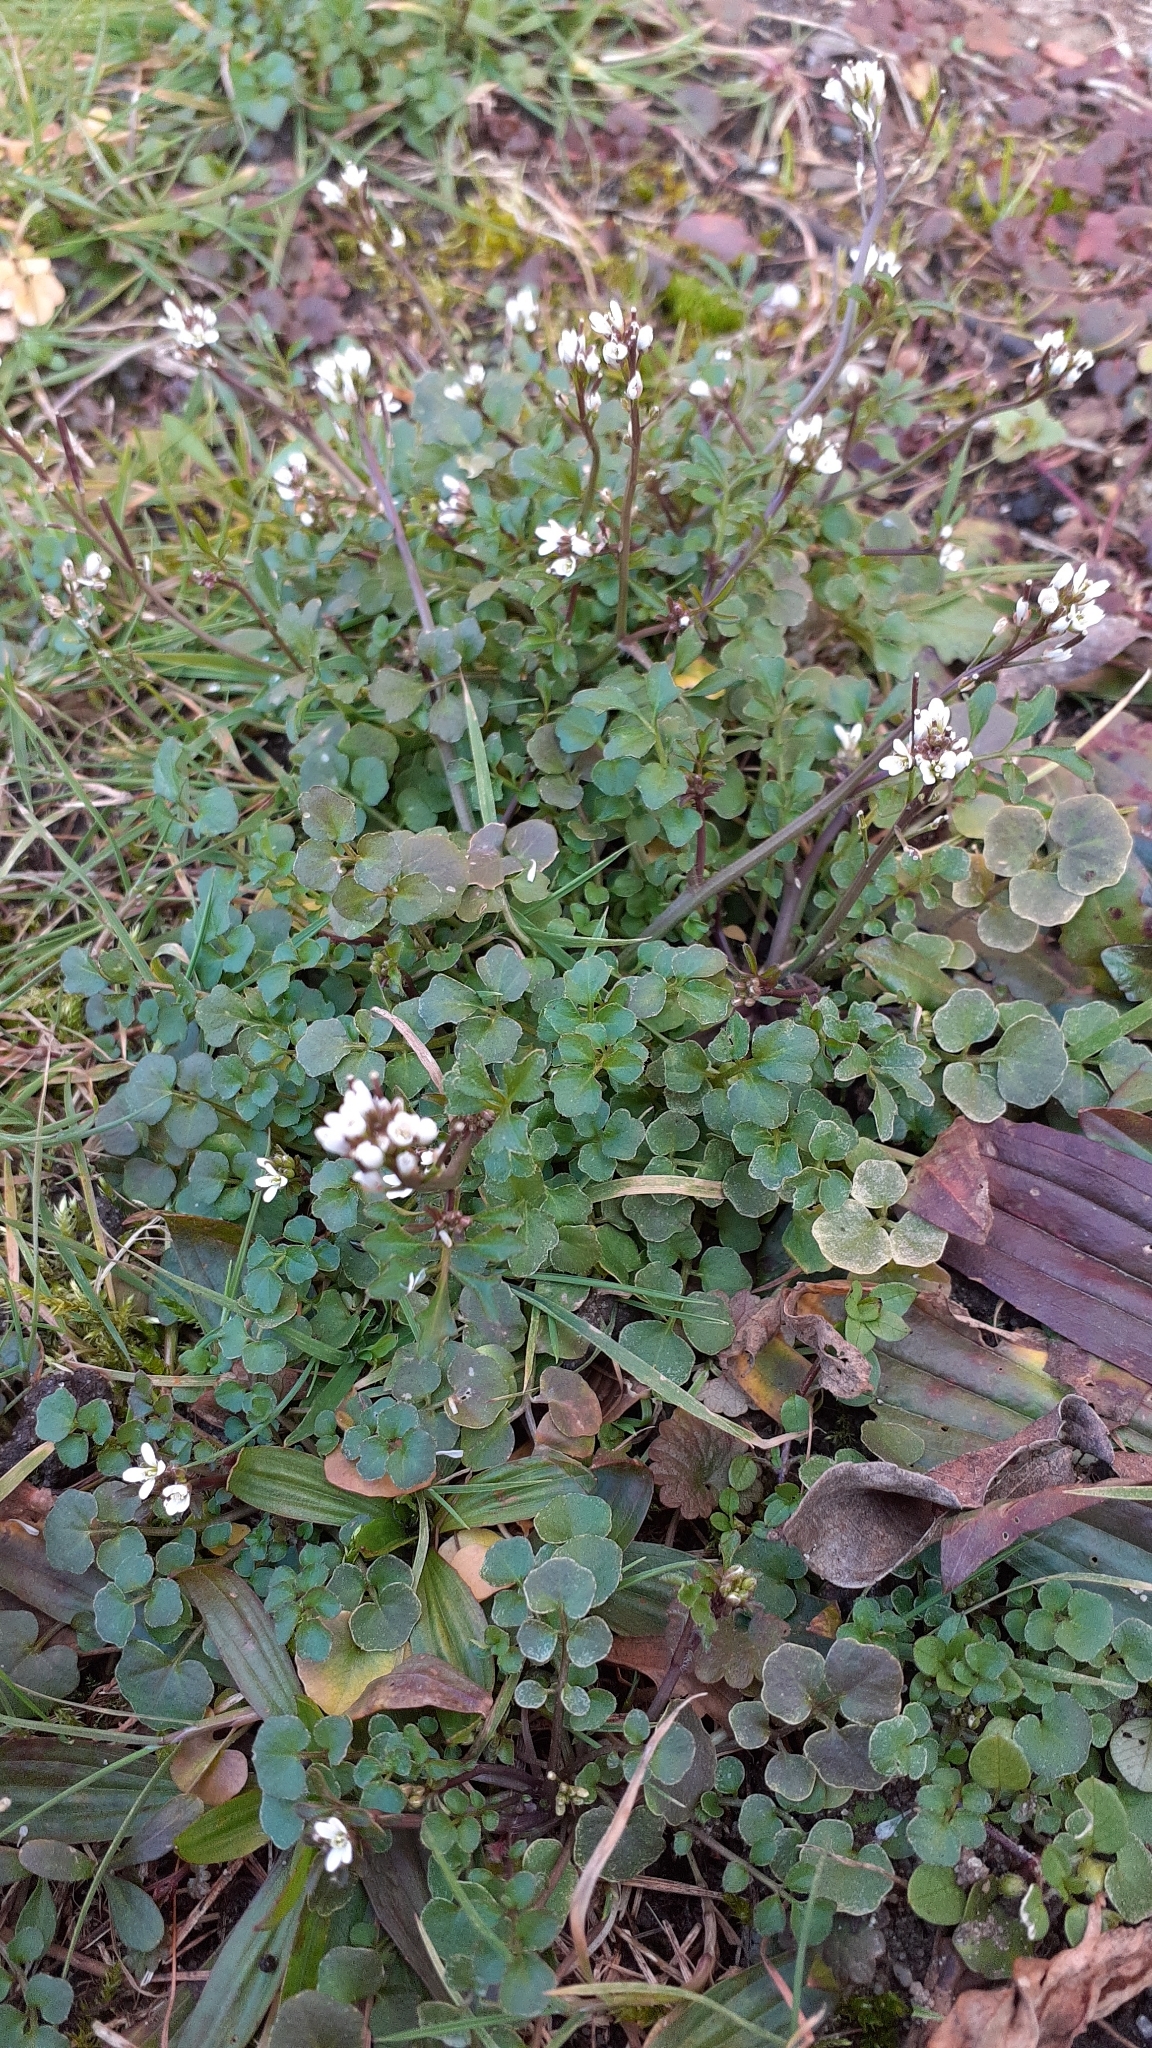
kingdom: Plantae
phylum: Tracheophyta
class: Magnoliopsida
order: Brassicales
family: Brassicaceae
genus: Cardamine
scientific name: Cardamine hirsuta
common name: Hairy bittercress
